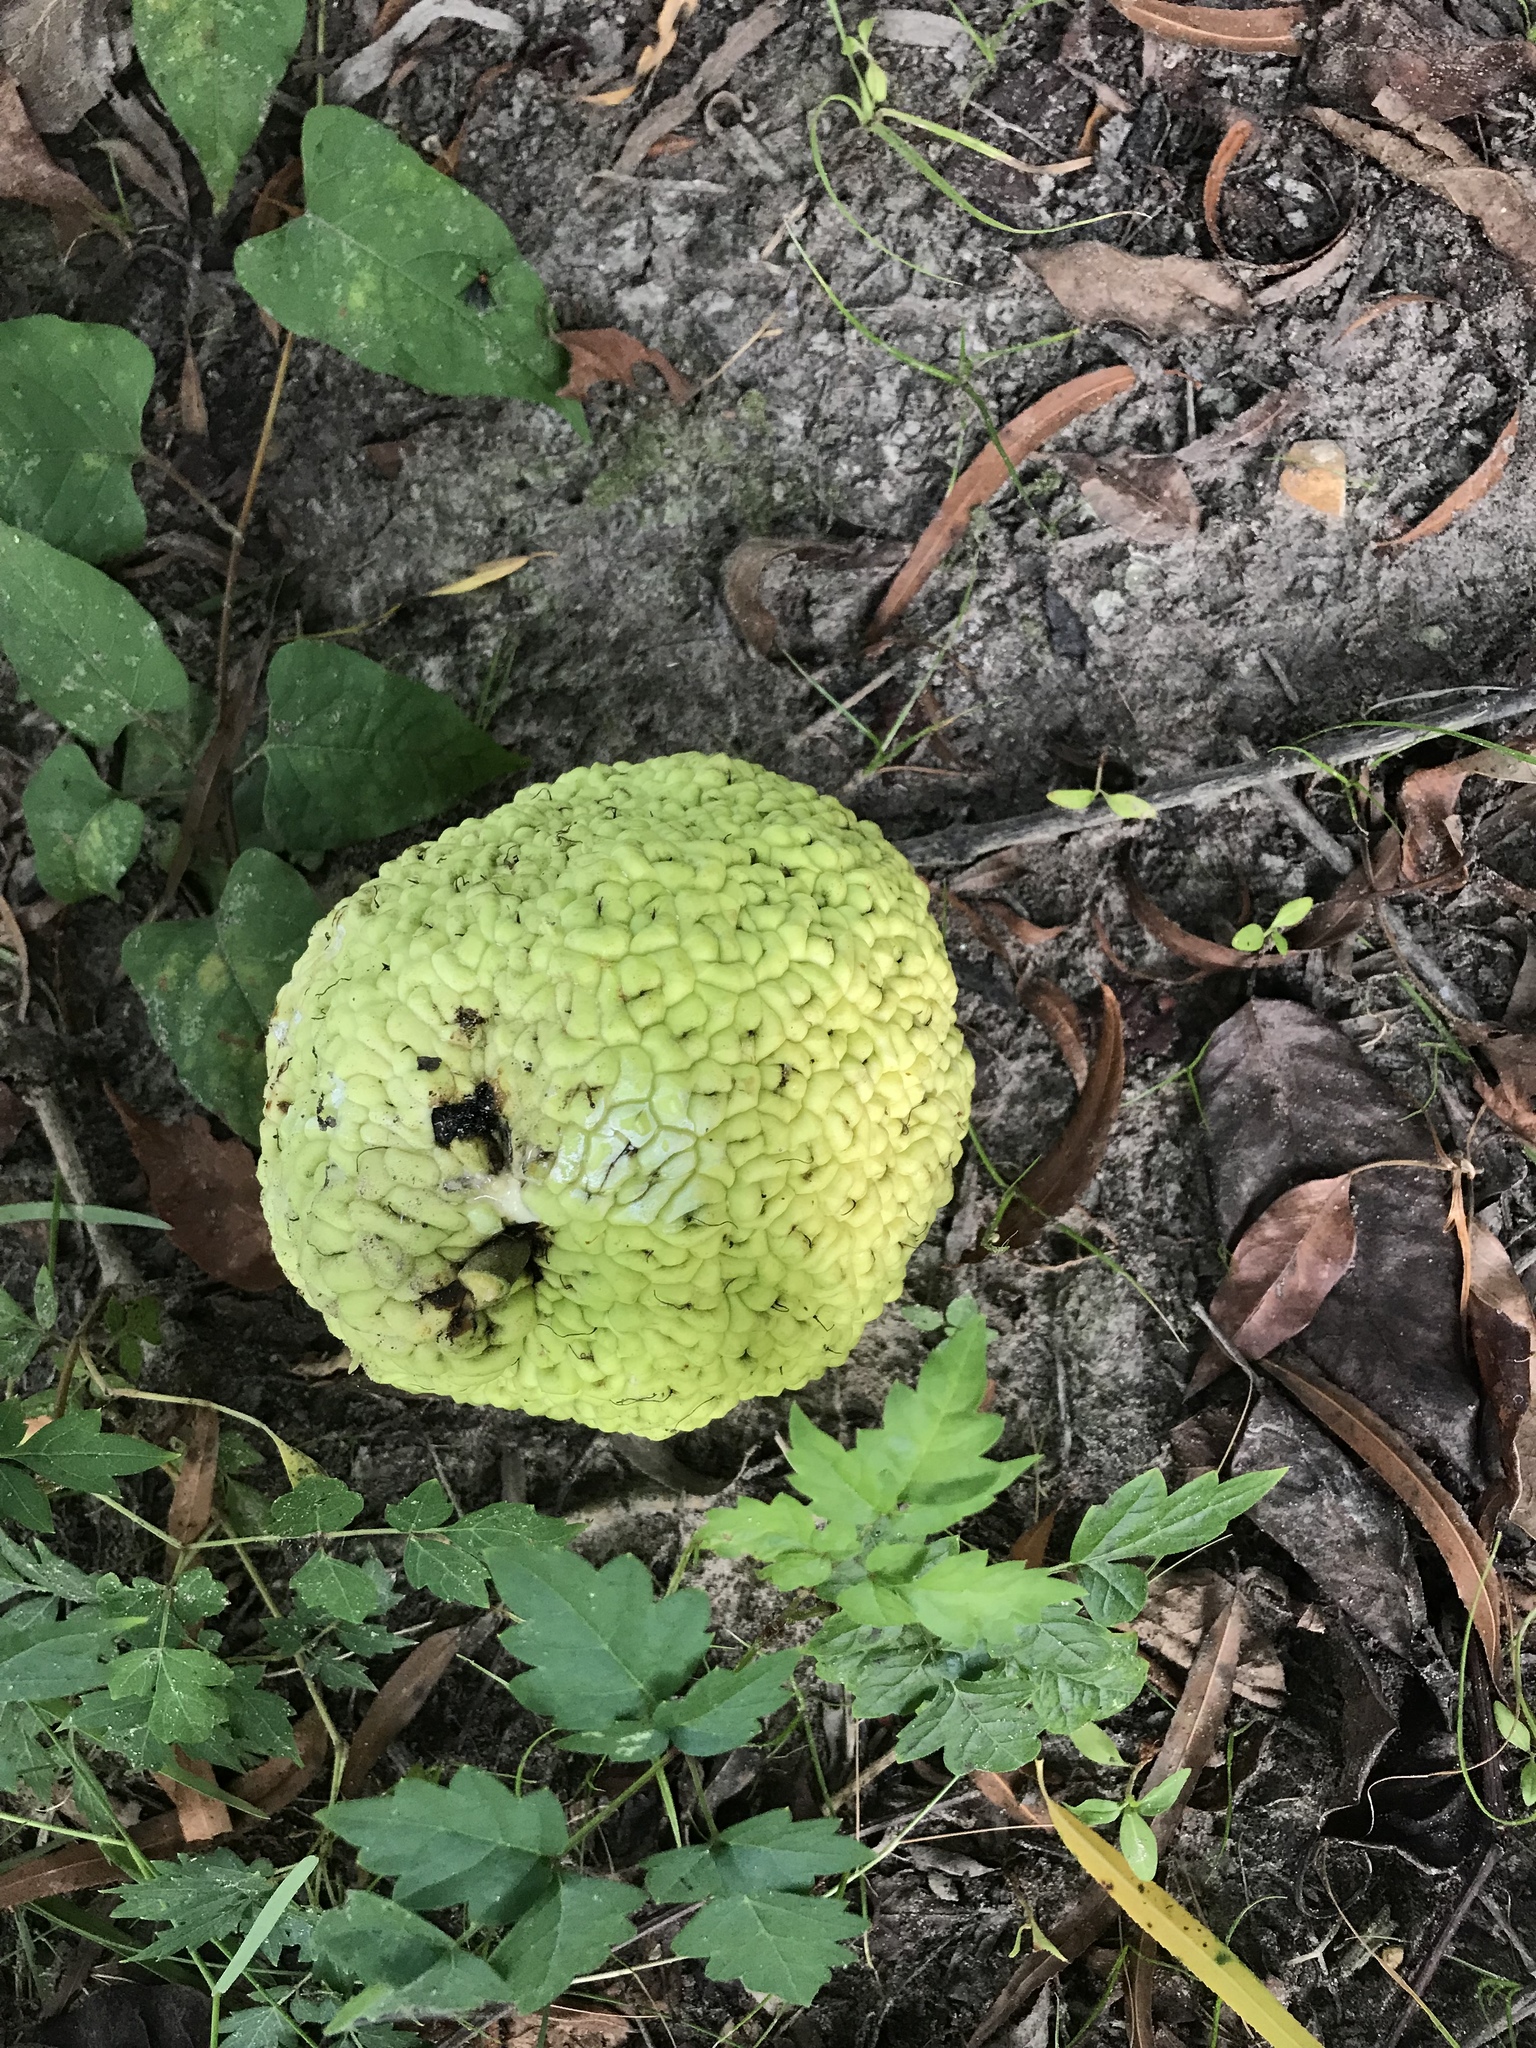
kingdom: Plantae
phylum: Tracheophyta
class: Magnoliopsida
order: Rosales
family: Moraceae
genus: Maclura
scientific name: Maclura pomifera
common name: Osage-orange
